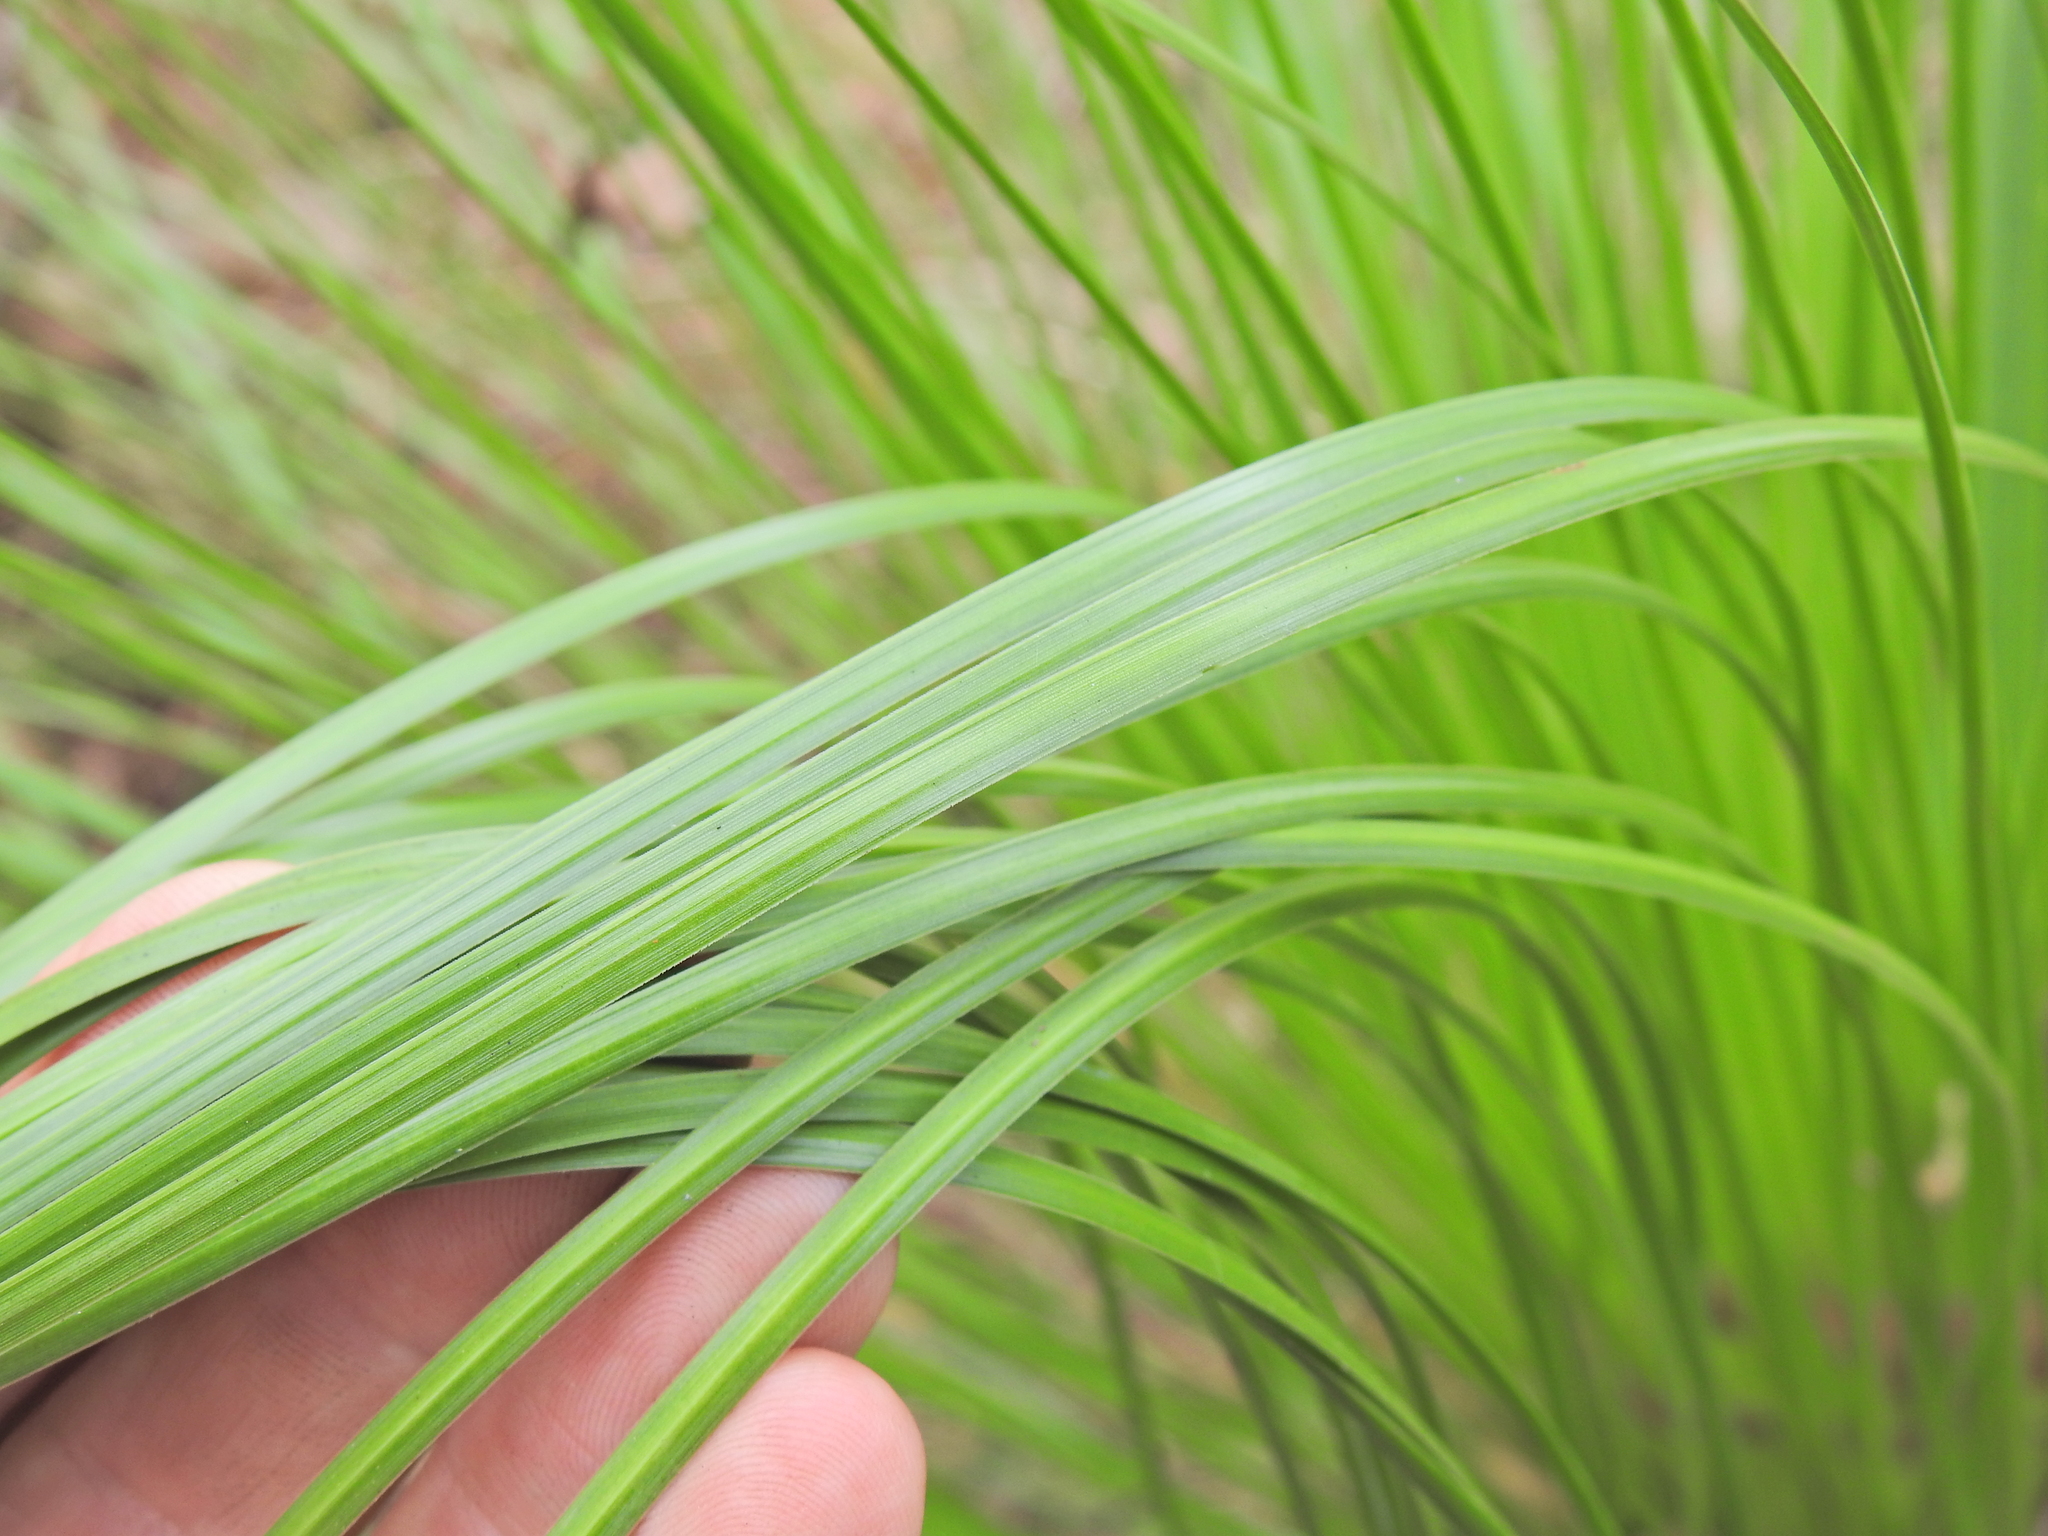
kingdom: Plantae
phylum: Tracheophyta
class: Liliopsida
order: Asparagales
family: Asphodelaceae
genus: Xanthorrhoea
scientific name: Xanthorrhoea latifolia
